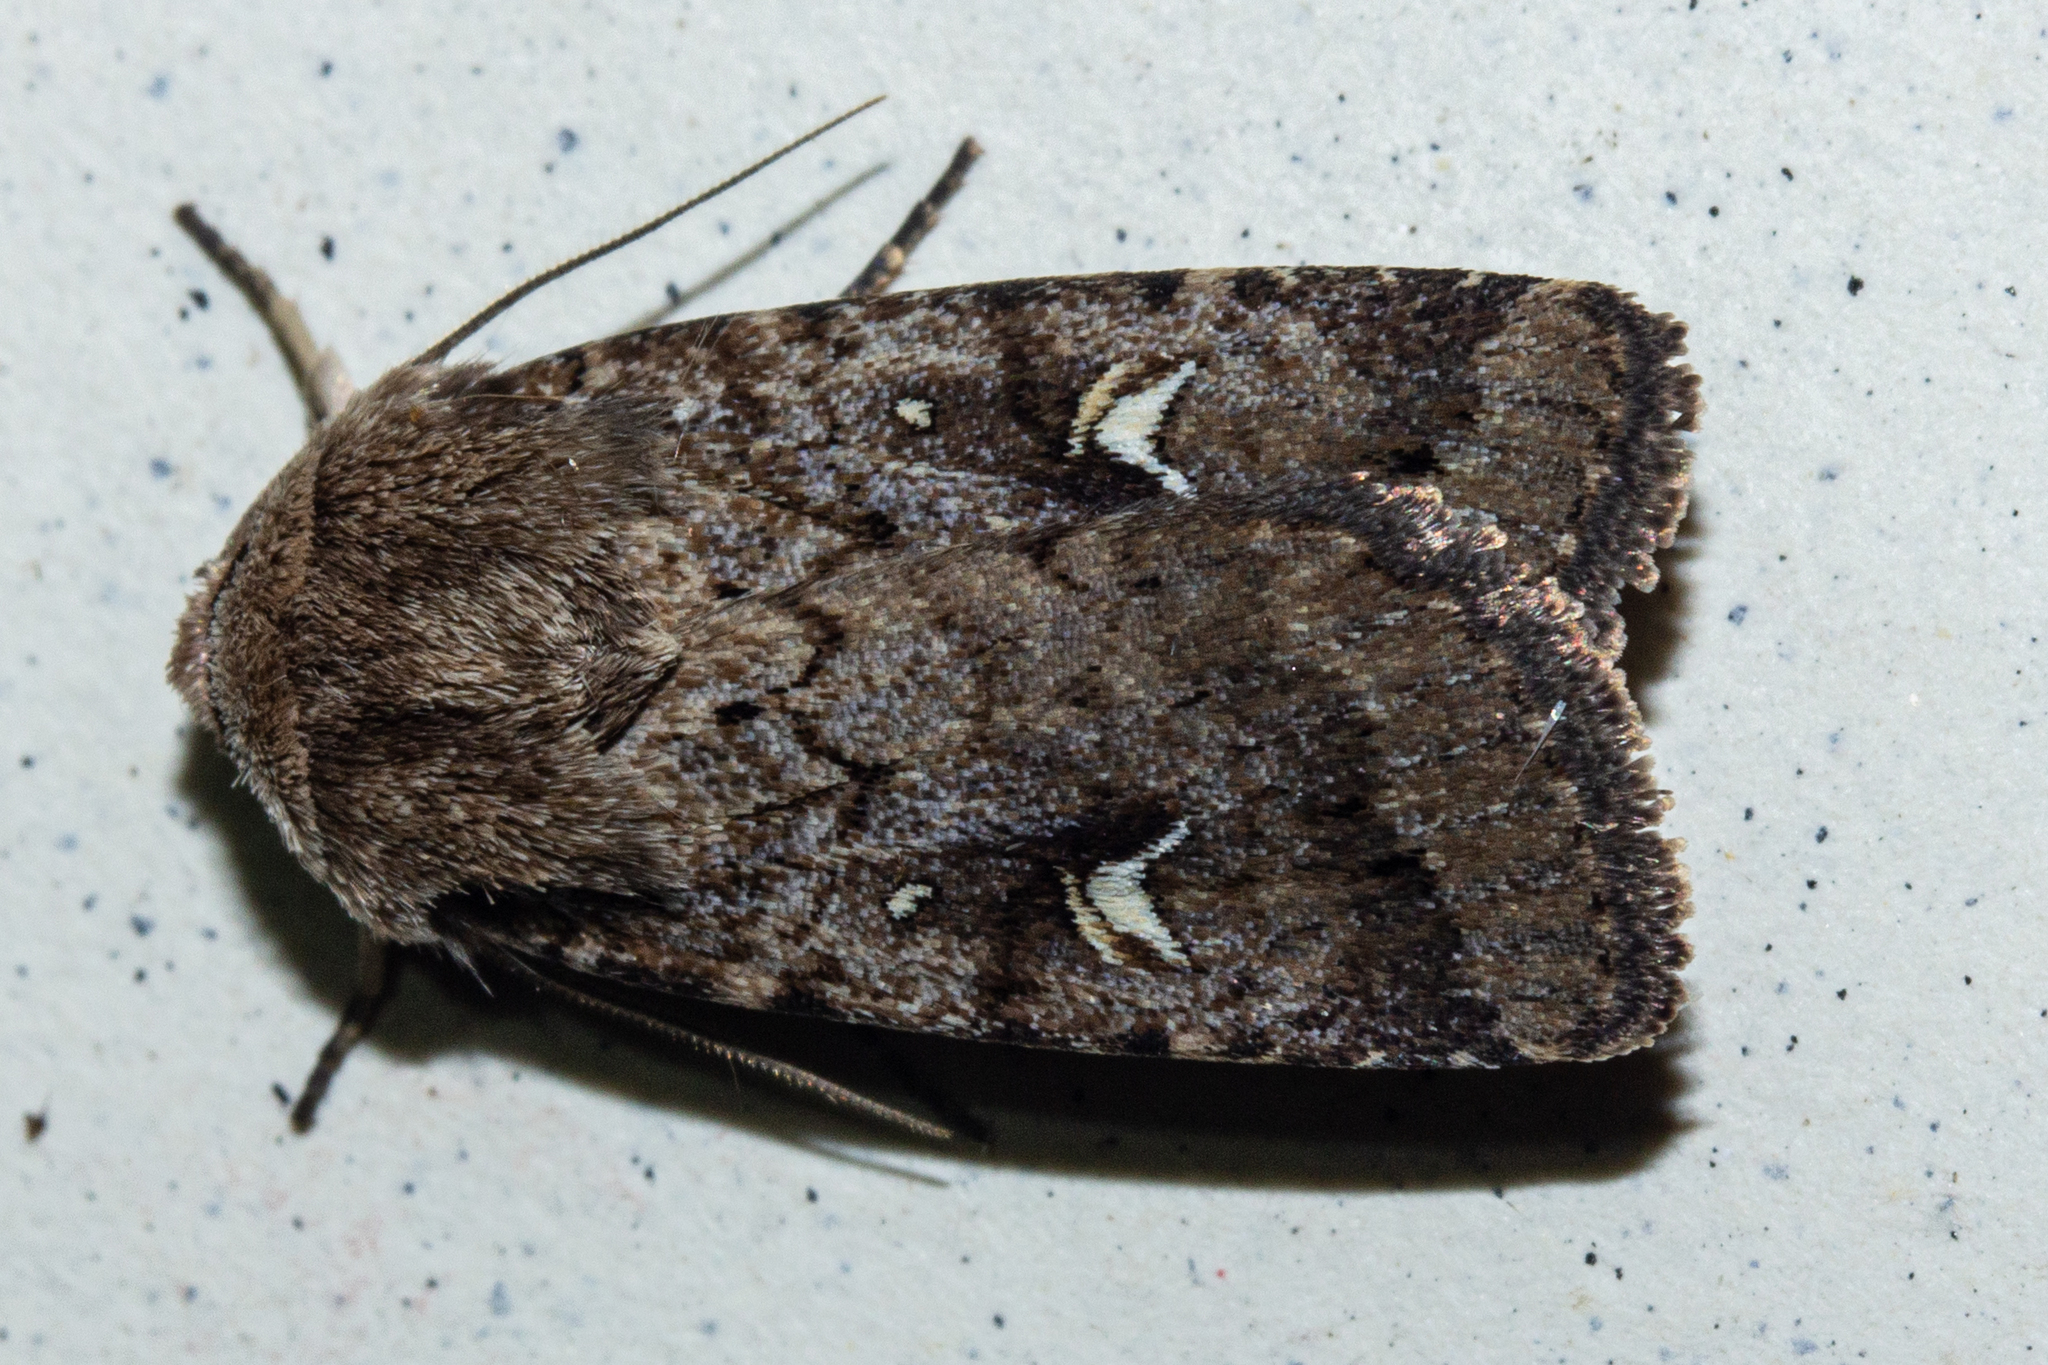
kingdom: Animalia
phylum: Arthropoda
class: Insecta
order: Lepidoptera
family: Noctuidae
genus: Proteuxoa
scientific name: Proteuxoa tetronycha
